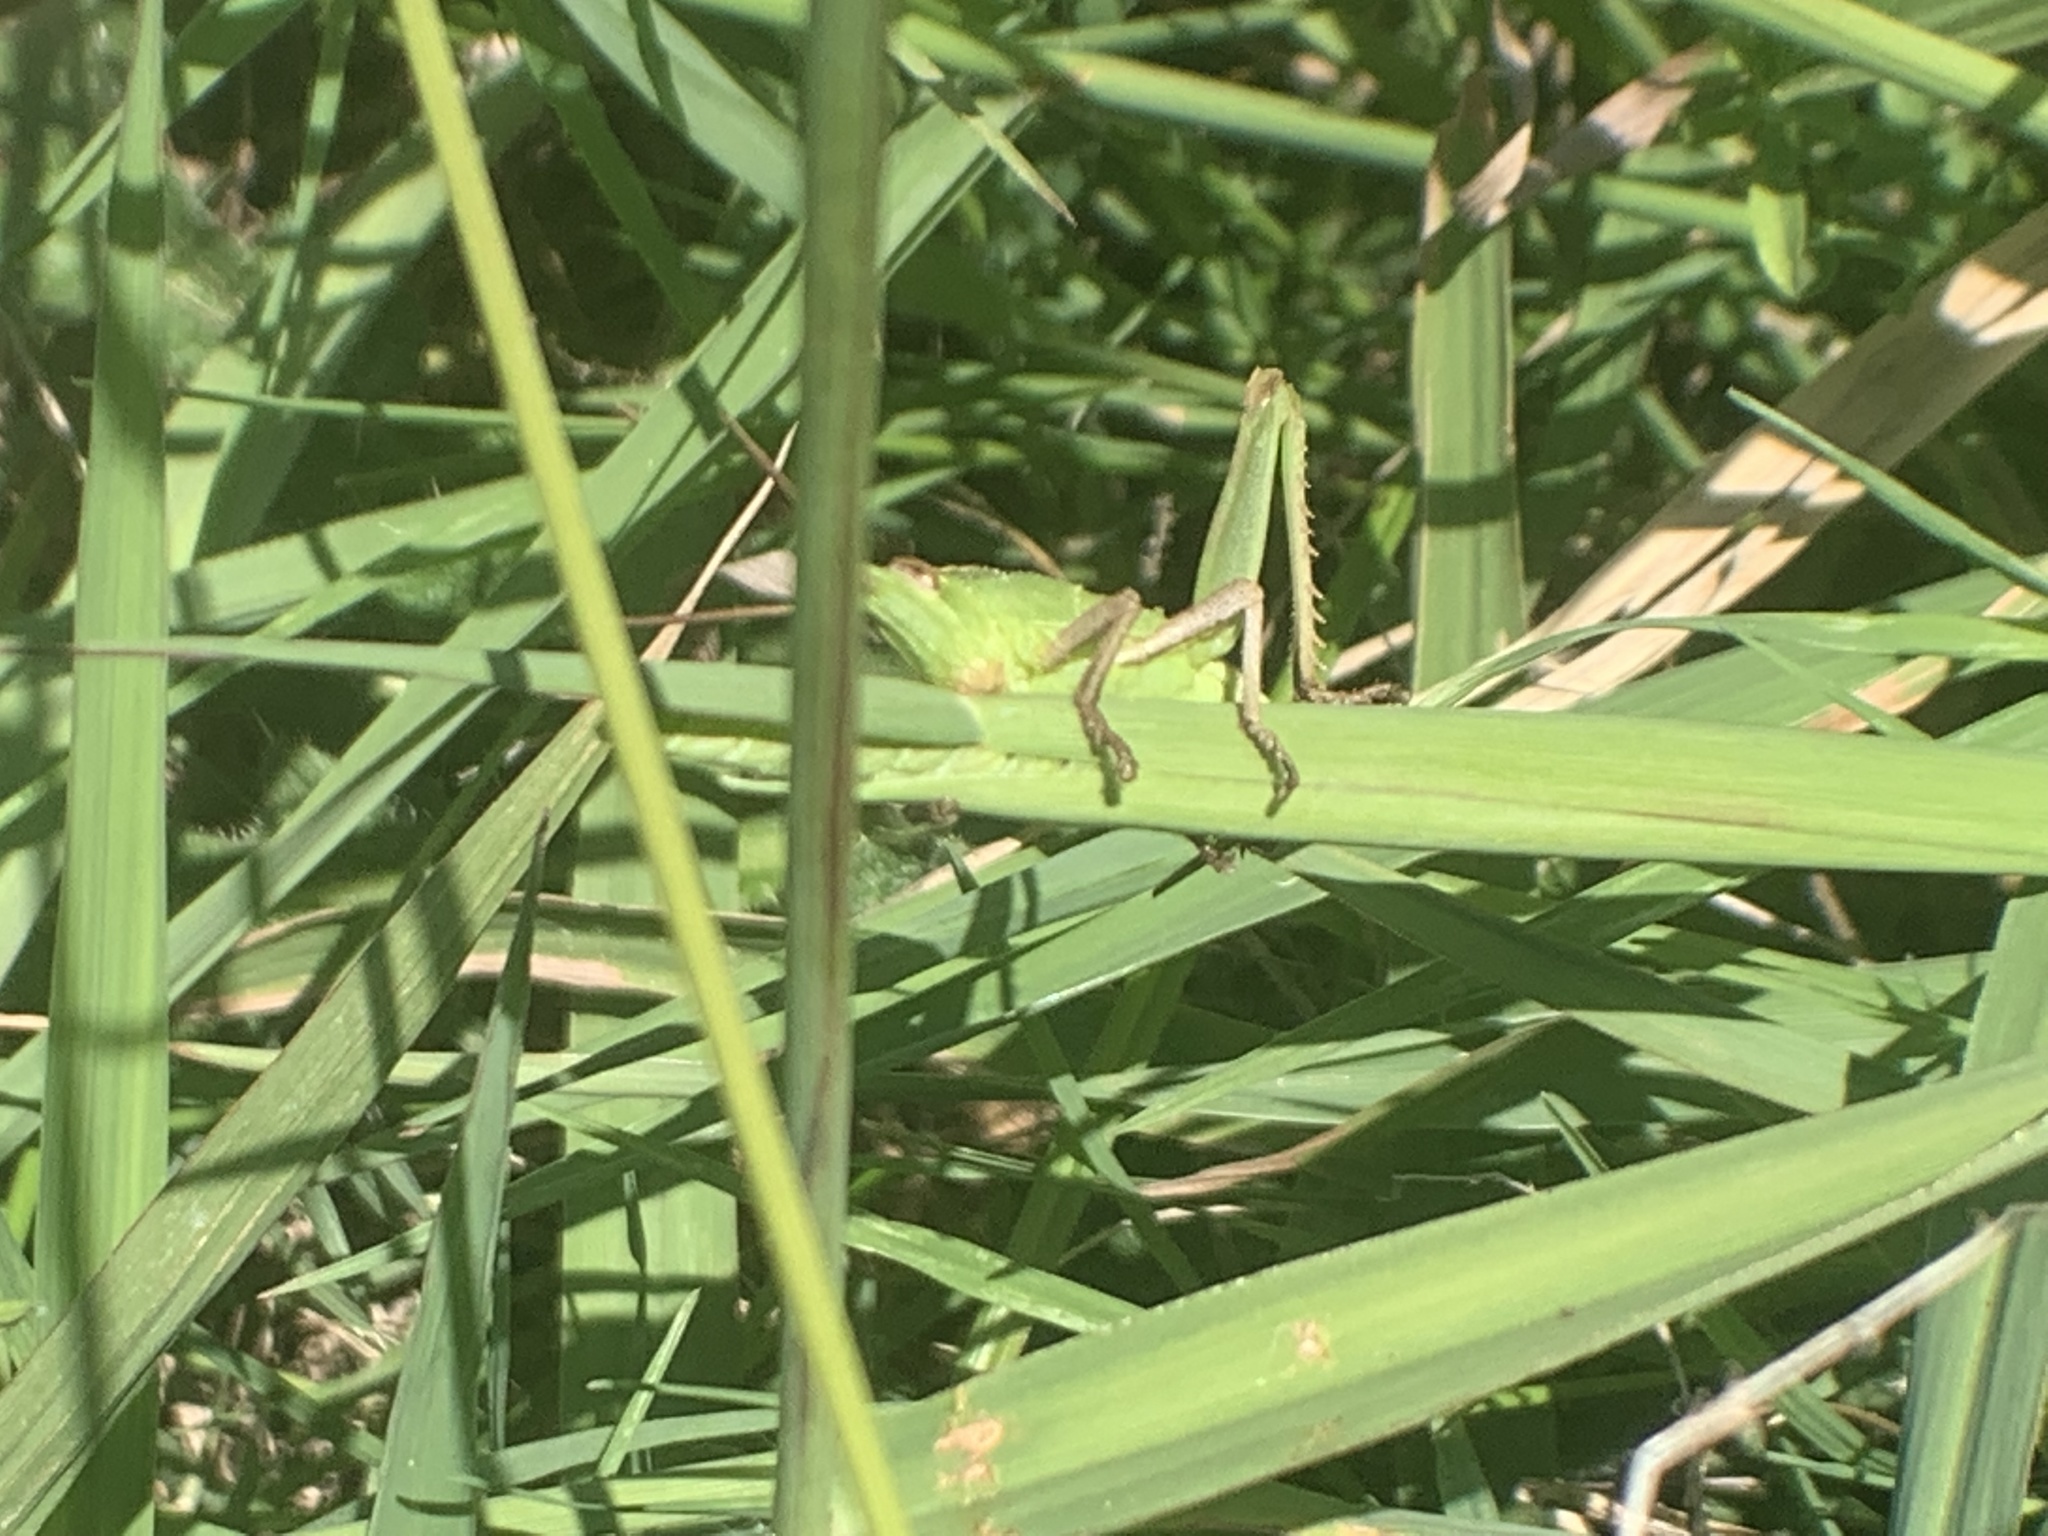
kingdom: Animalia
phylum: Arthropoda
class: Insecta
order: Orthoptera
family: Romaleidae
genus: Staleochlora
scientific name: Staleochlora viridicata
